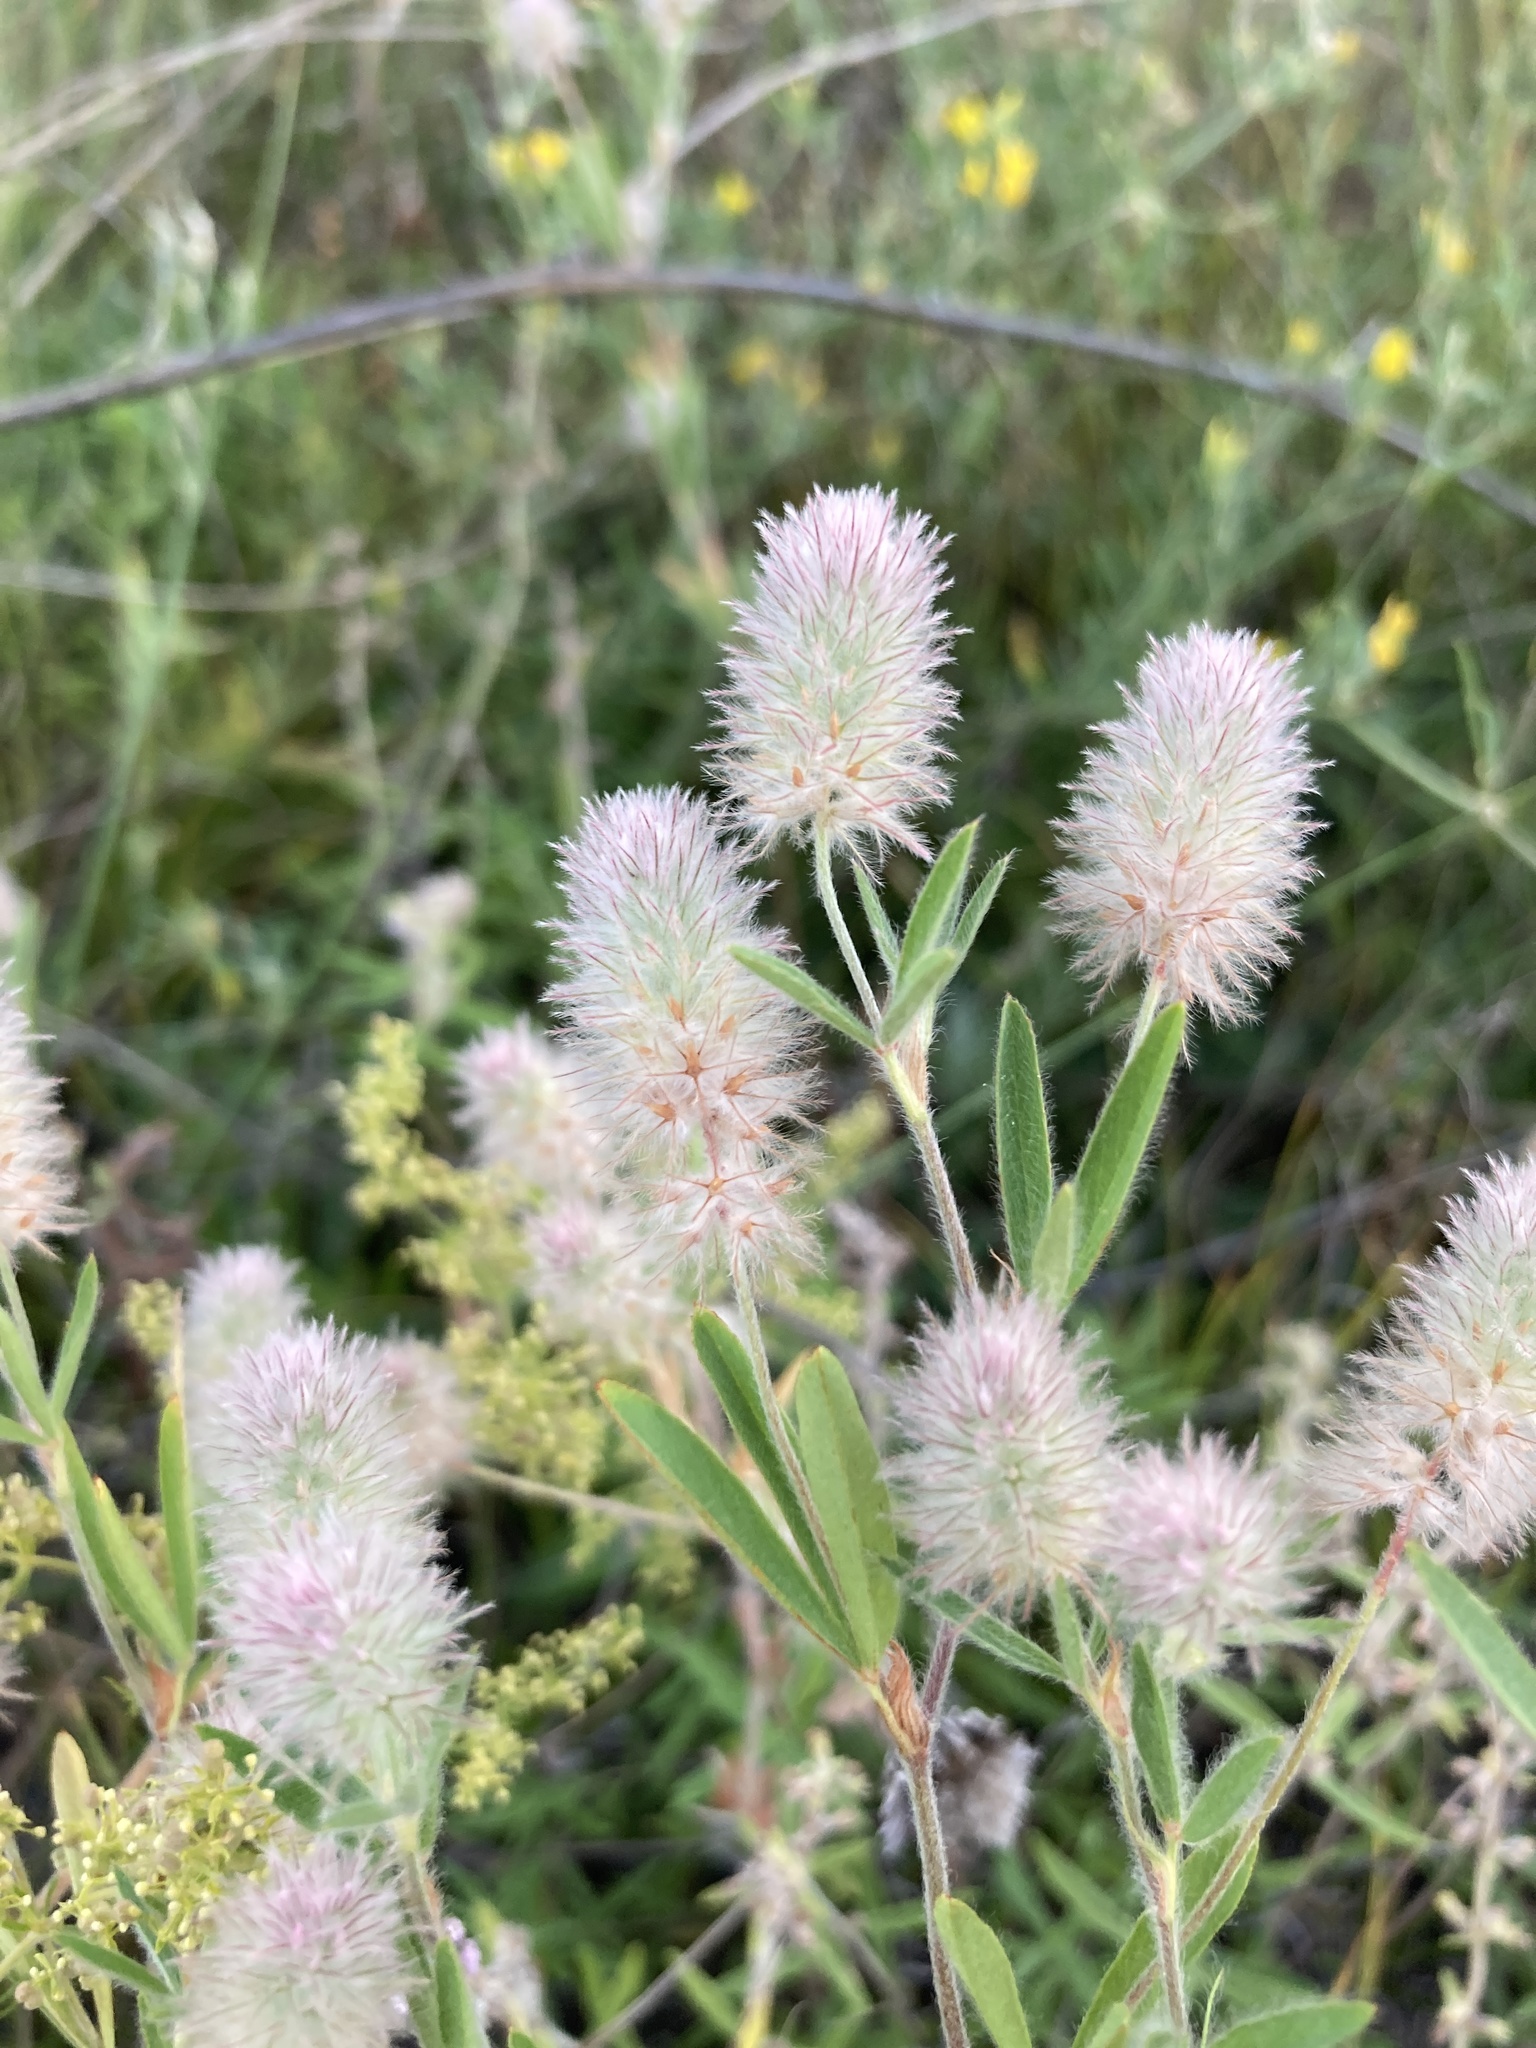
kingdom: Plantae
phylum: Tracheophyta
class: Magnoliopsida
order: Fabales
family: Fabaceae
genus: Trifolium
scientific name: Trifolium arvense
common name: Hare's-foot clover
